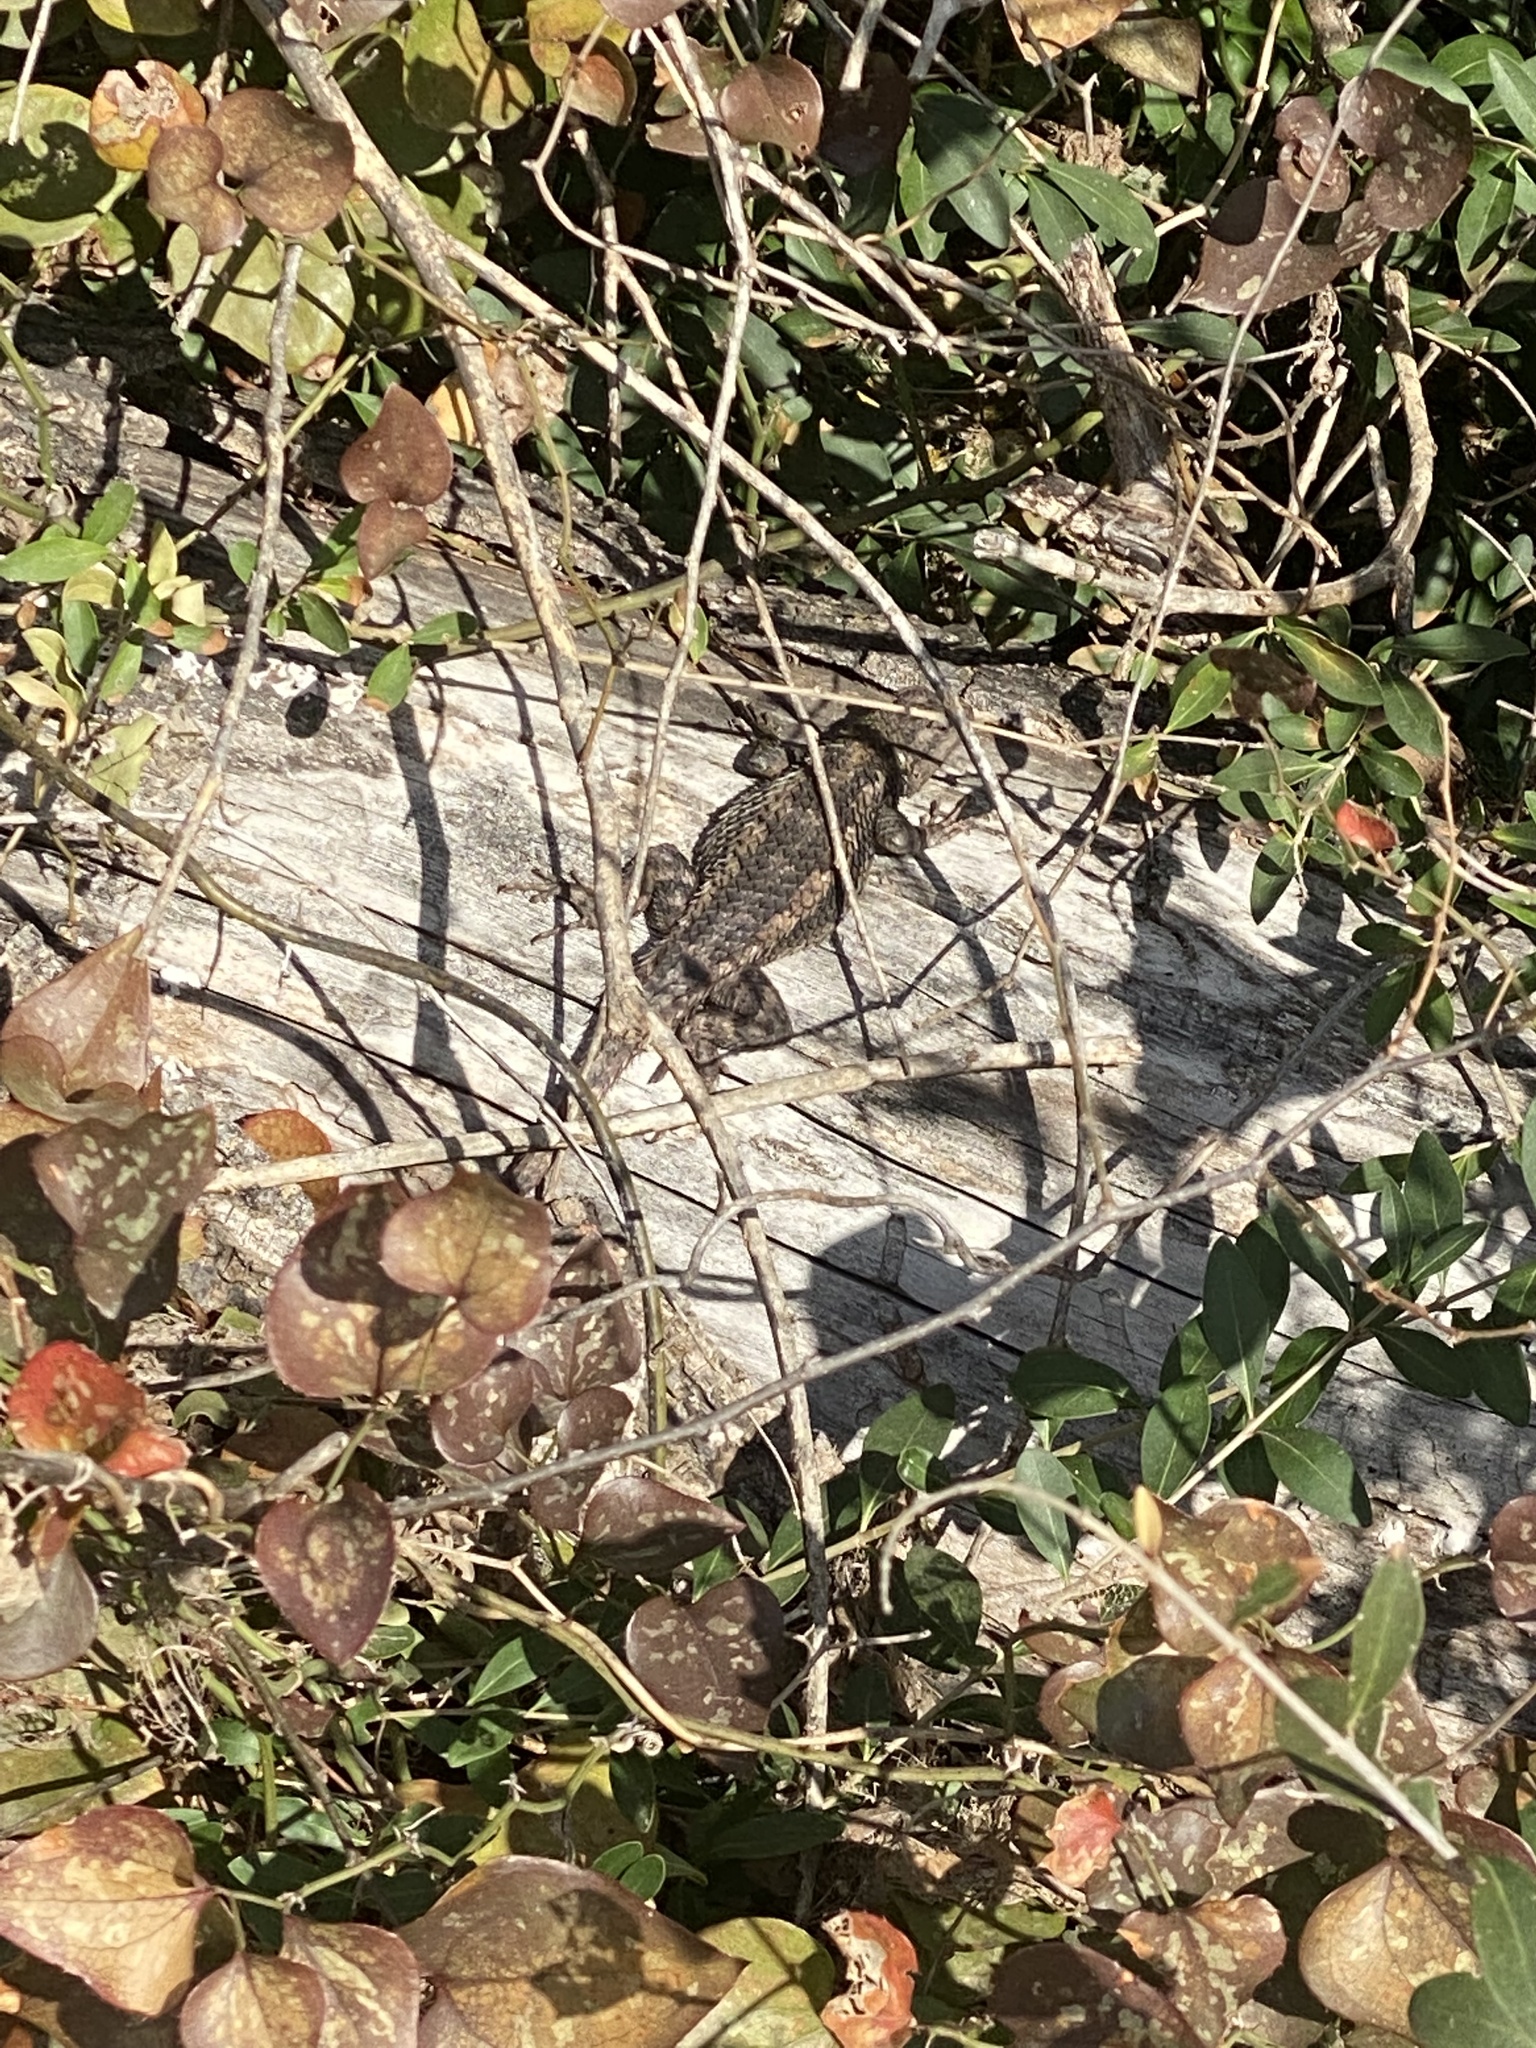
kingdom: Animalia
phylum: Chordata
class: Squamata
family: Phrynosomatidae
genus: Sceloporus
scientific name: Sceloporus olivaceus
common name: Texas spiny lizard
